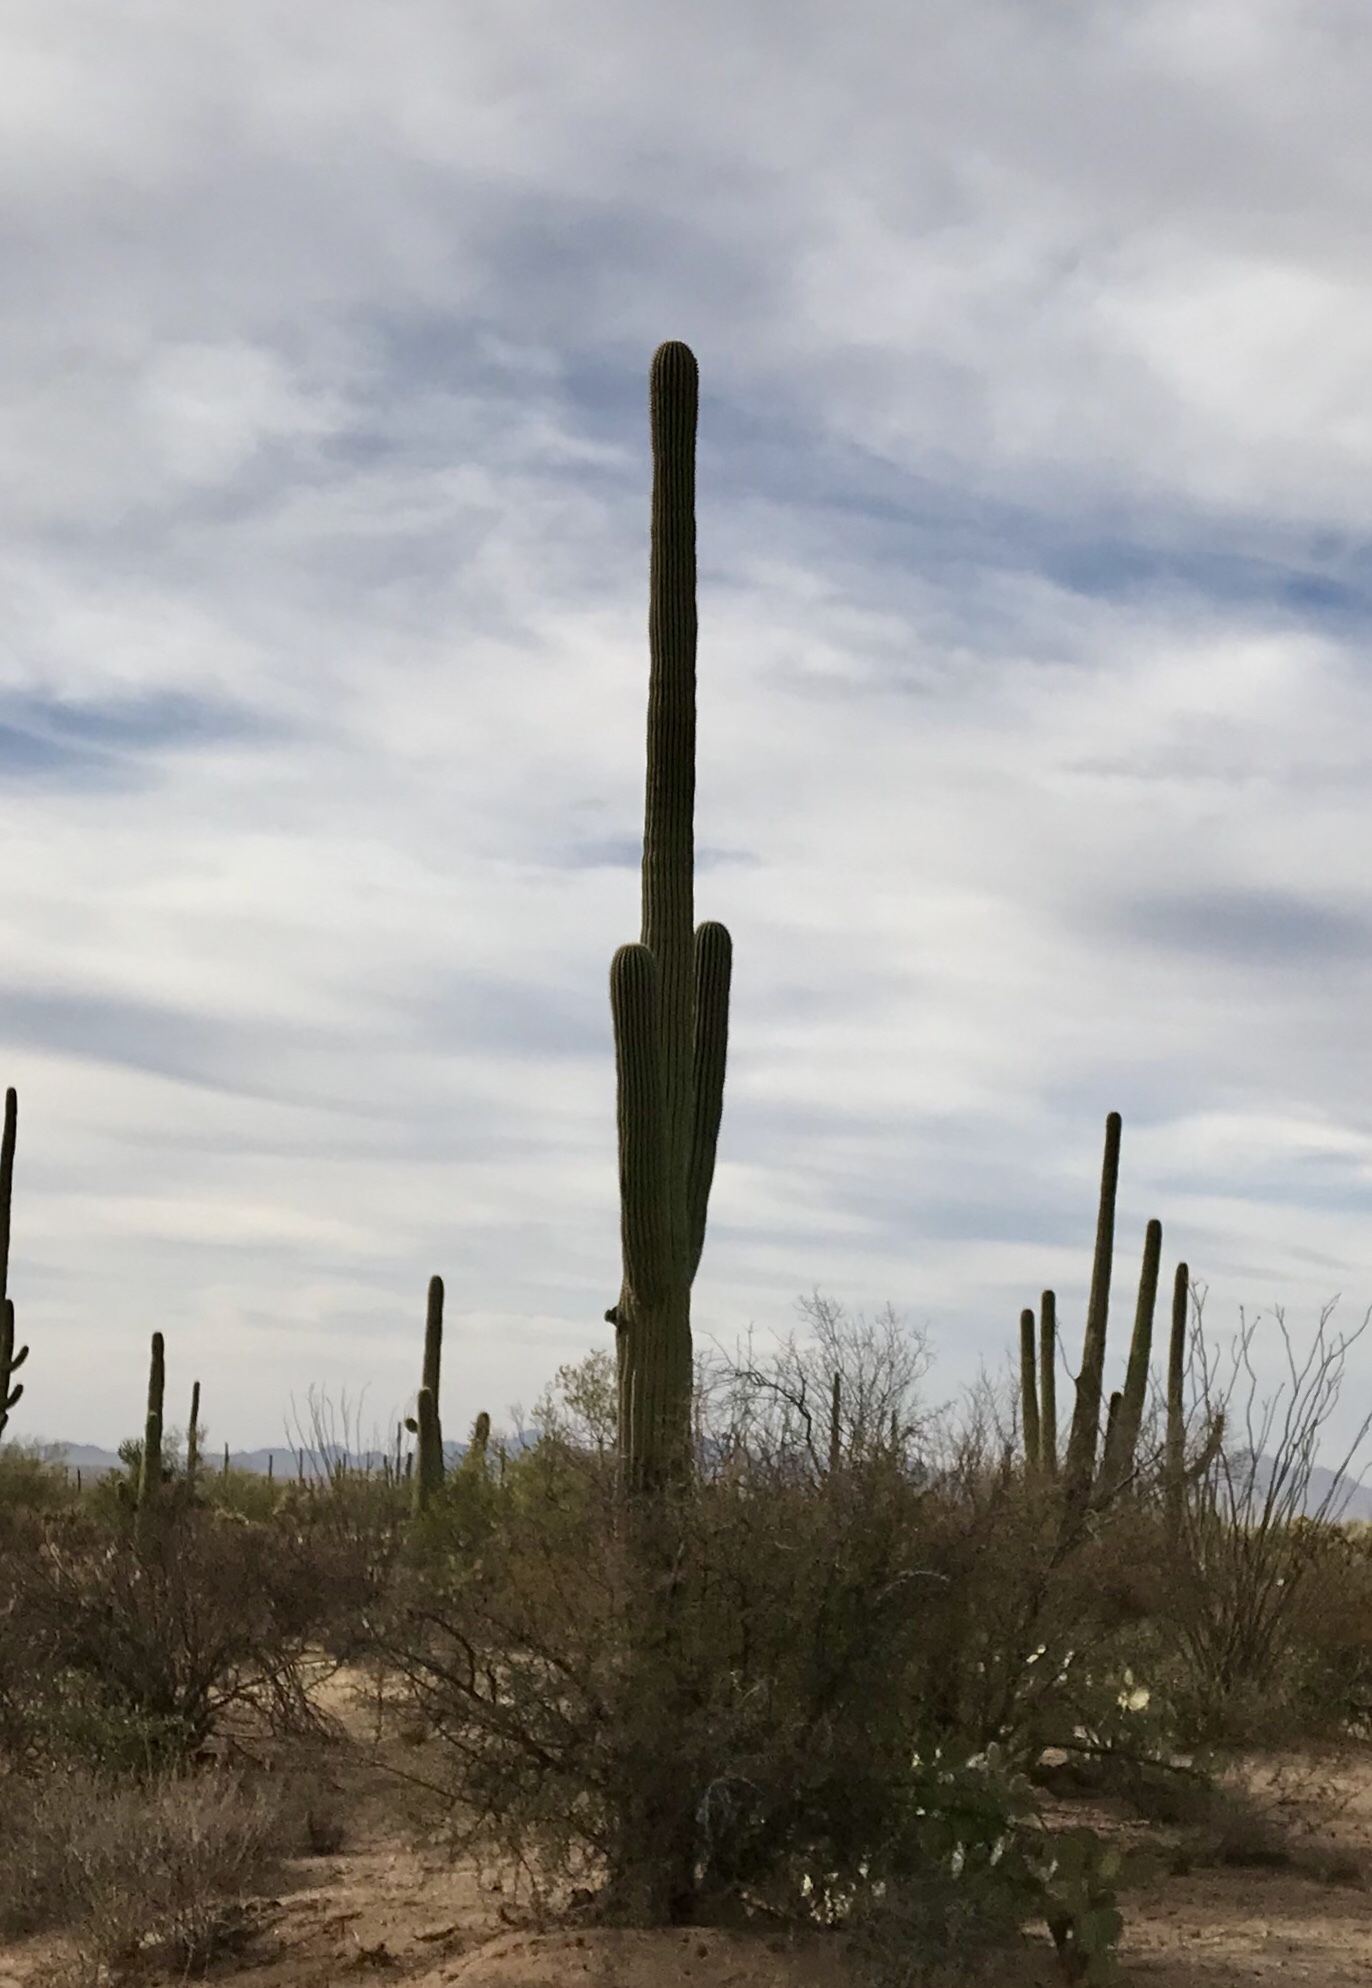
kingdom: Plantae
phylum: Tracheophyta
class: Magnoliopsida
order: Caryophyllales
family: Cactaceae
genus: Carnegiea
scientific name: Carnegiea gigantea
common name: Saguaro
